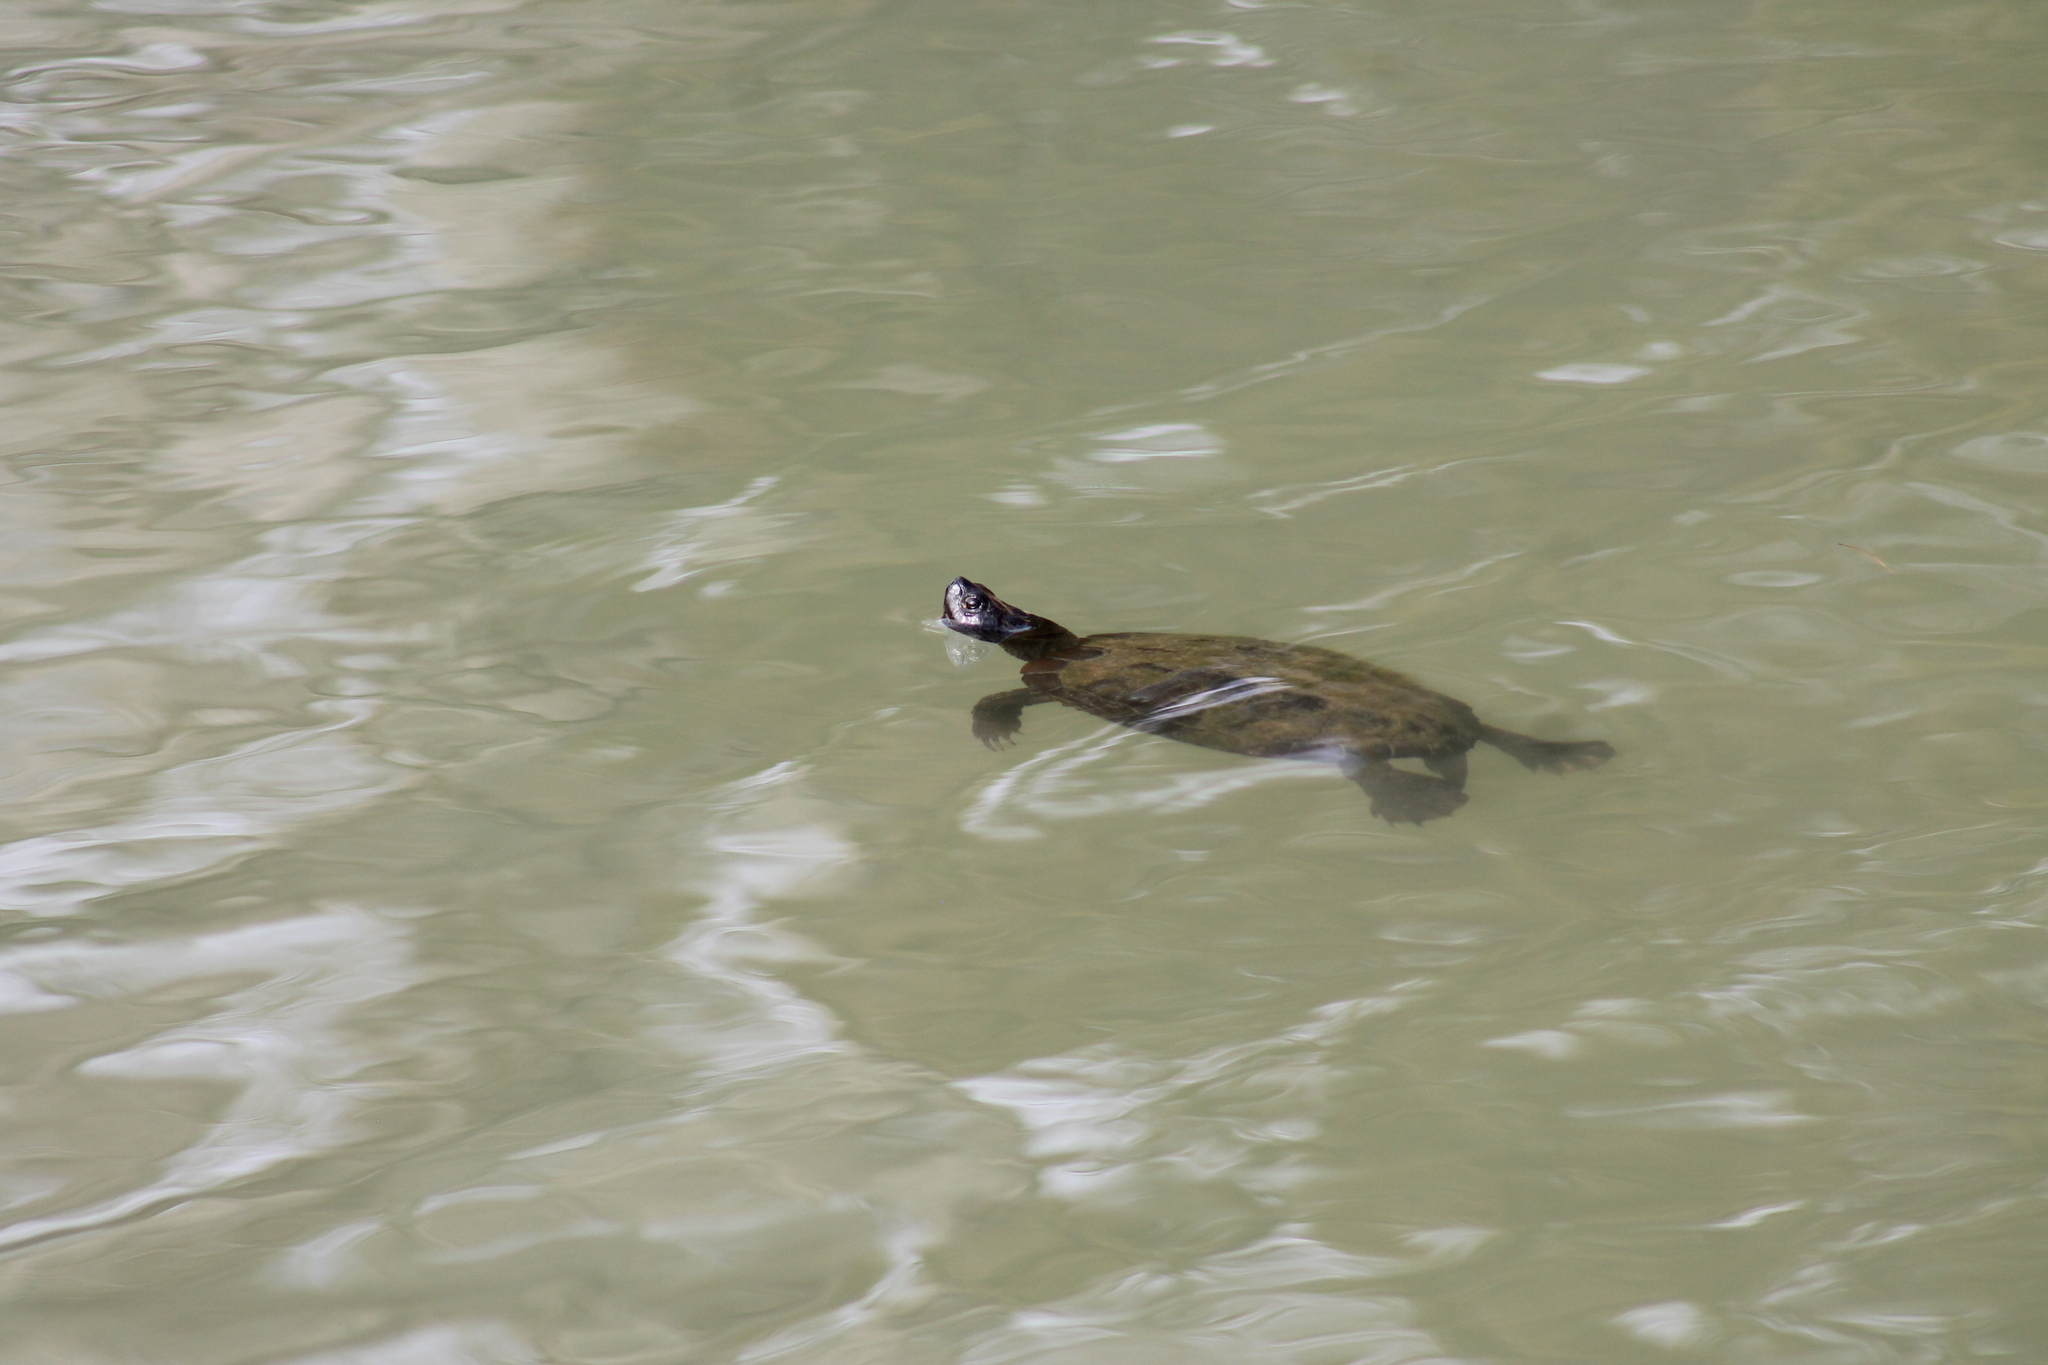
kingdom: Animalia
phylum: Chordata
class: Testudines
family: Emydidae
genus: Trachemys
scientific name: Trachemys scripta
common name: Slider
